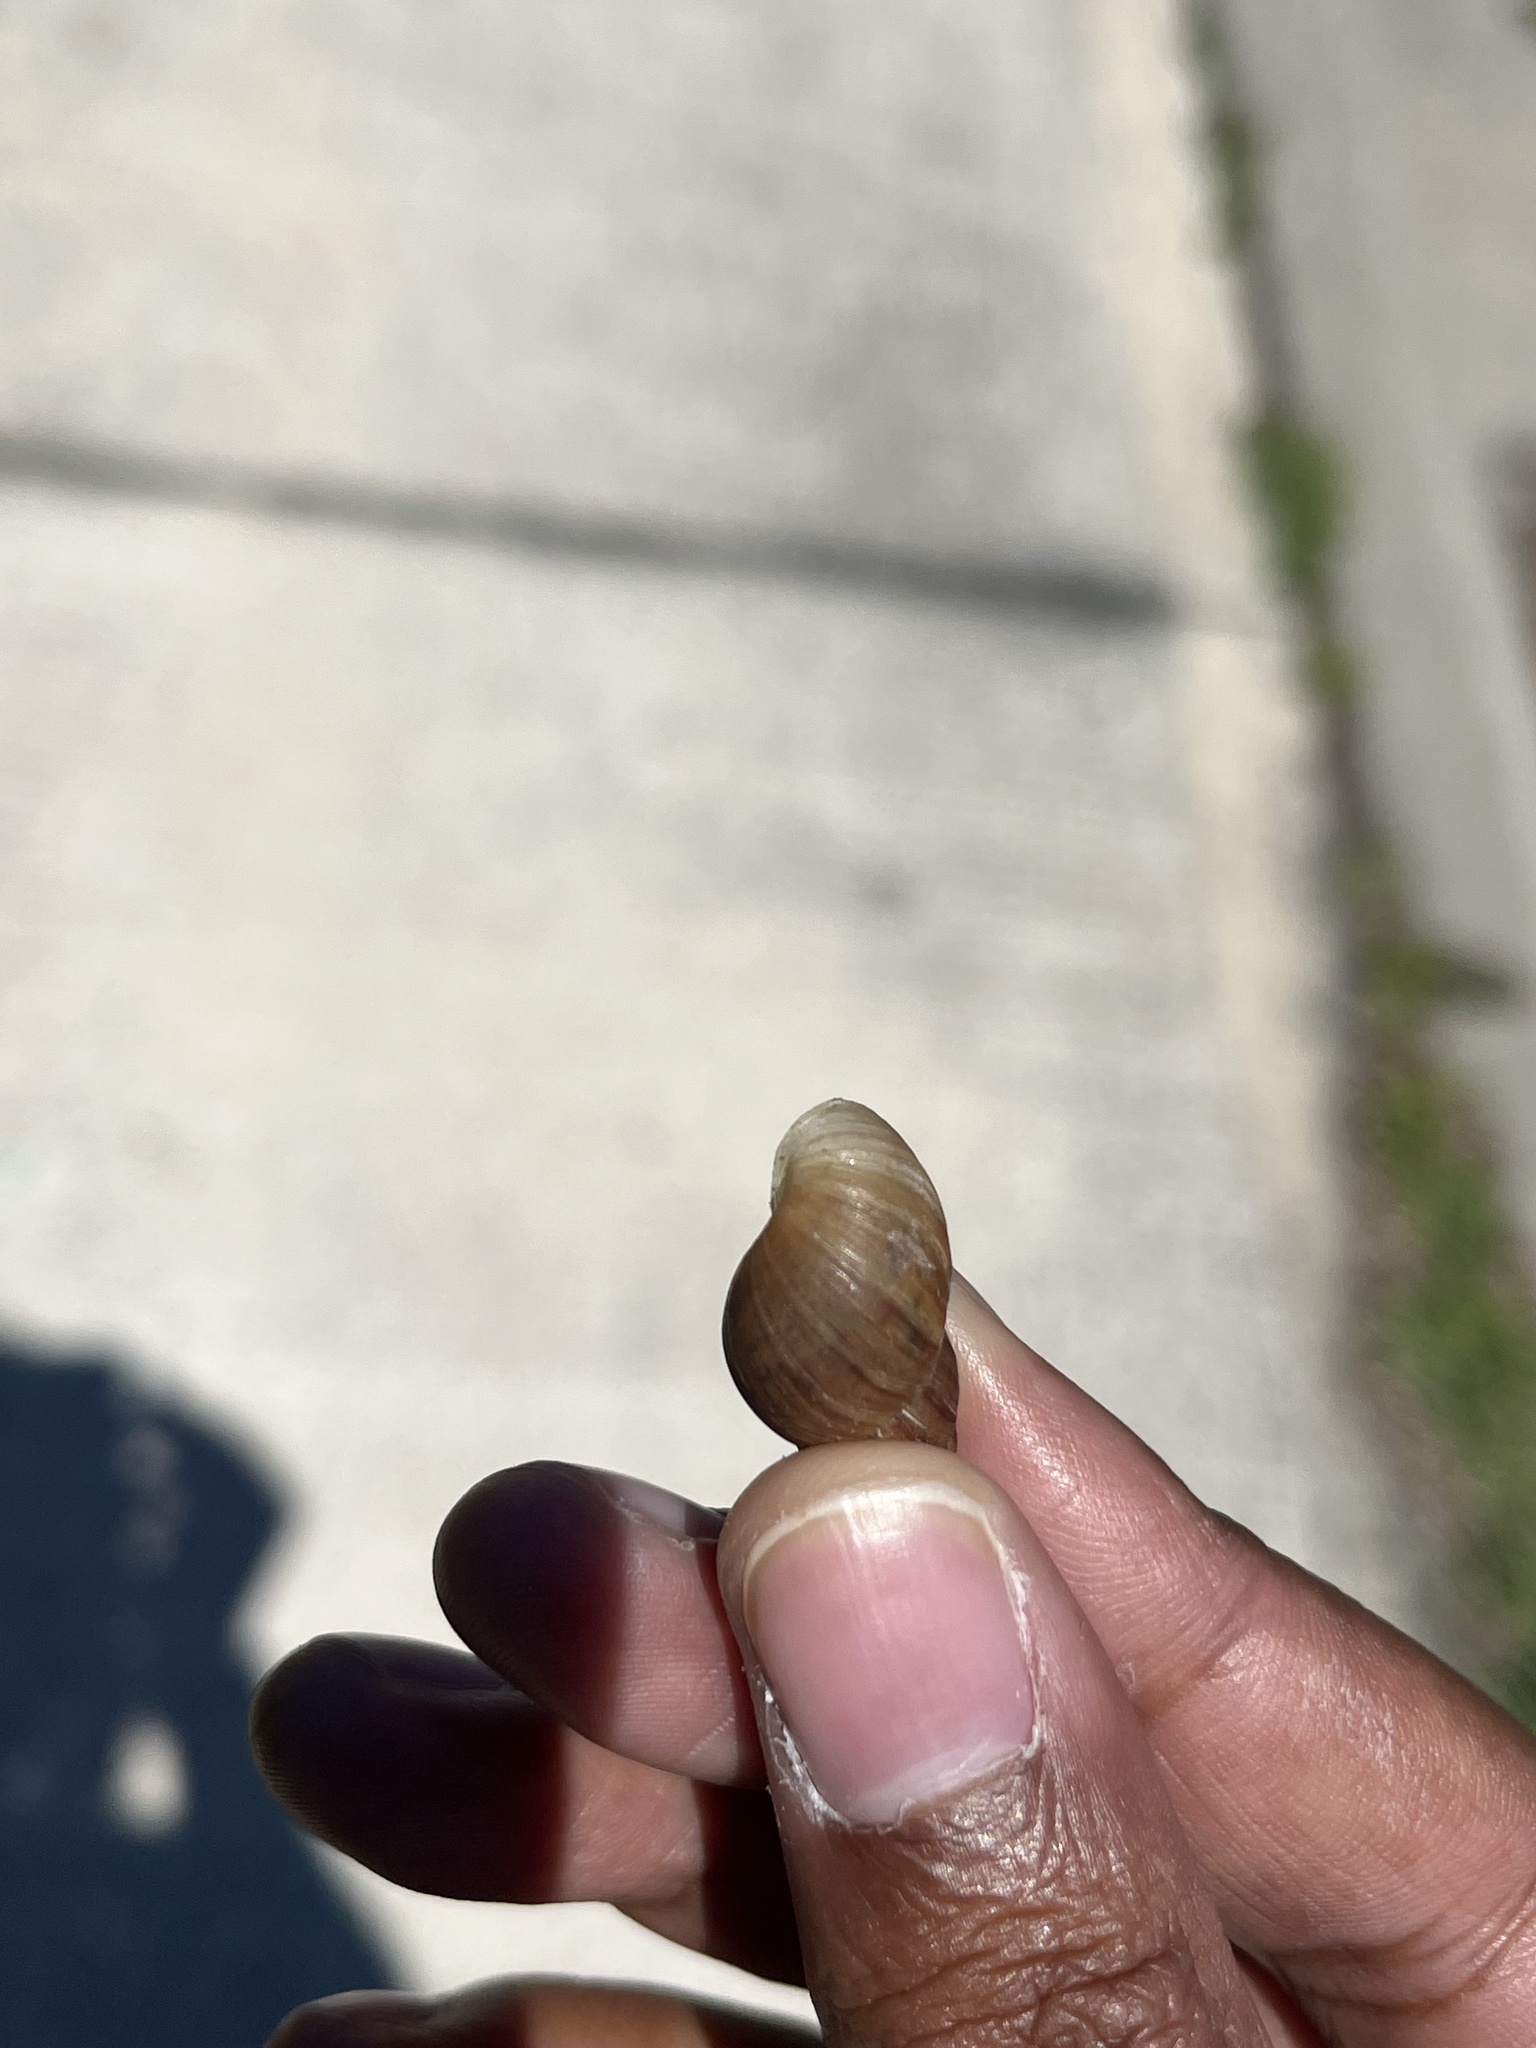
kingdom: Animalia
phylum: Mollusca
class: Gastropoda
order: Stylommatophora
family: Bulimulidae
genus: Bulimulus
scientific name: Bulimulus bonariensis
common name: Snail
